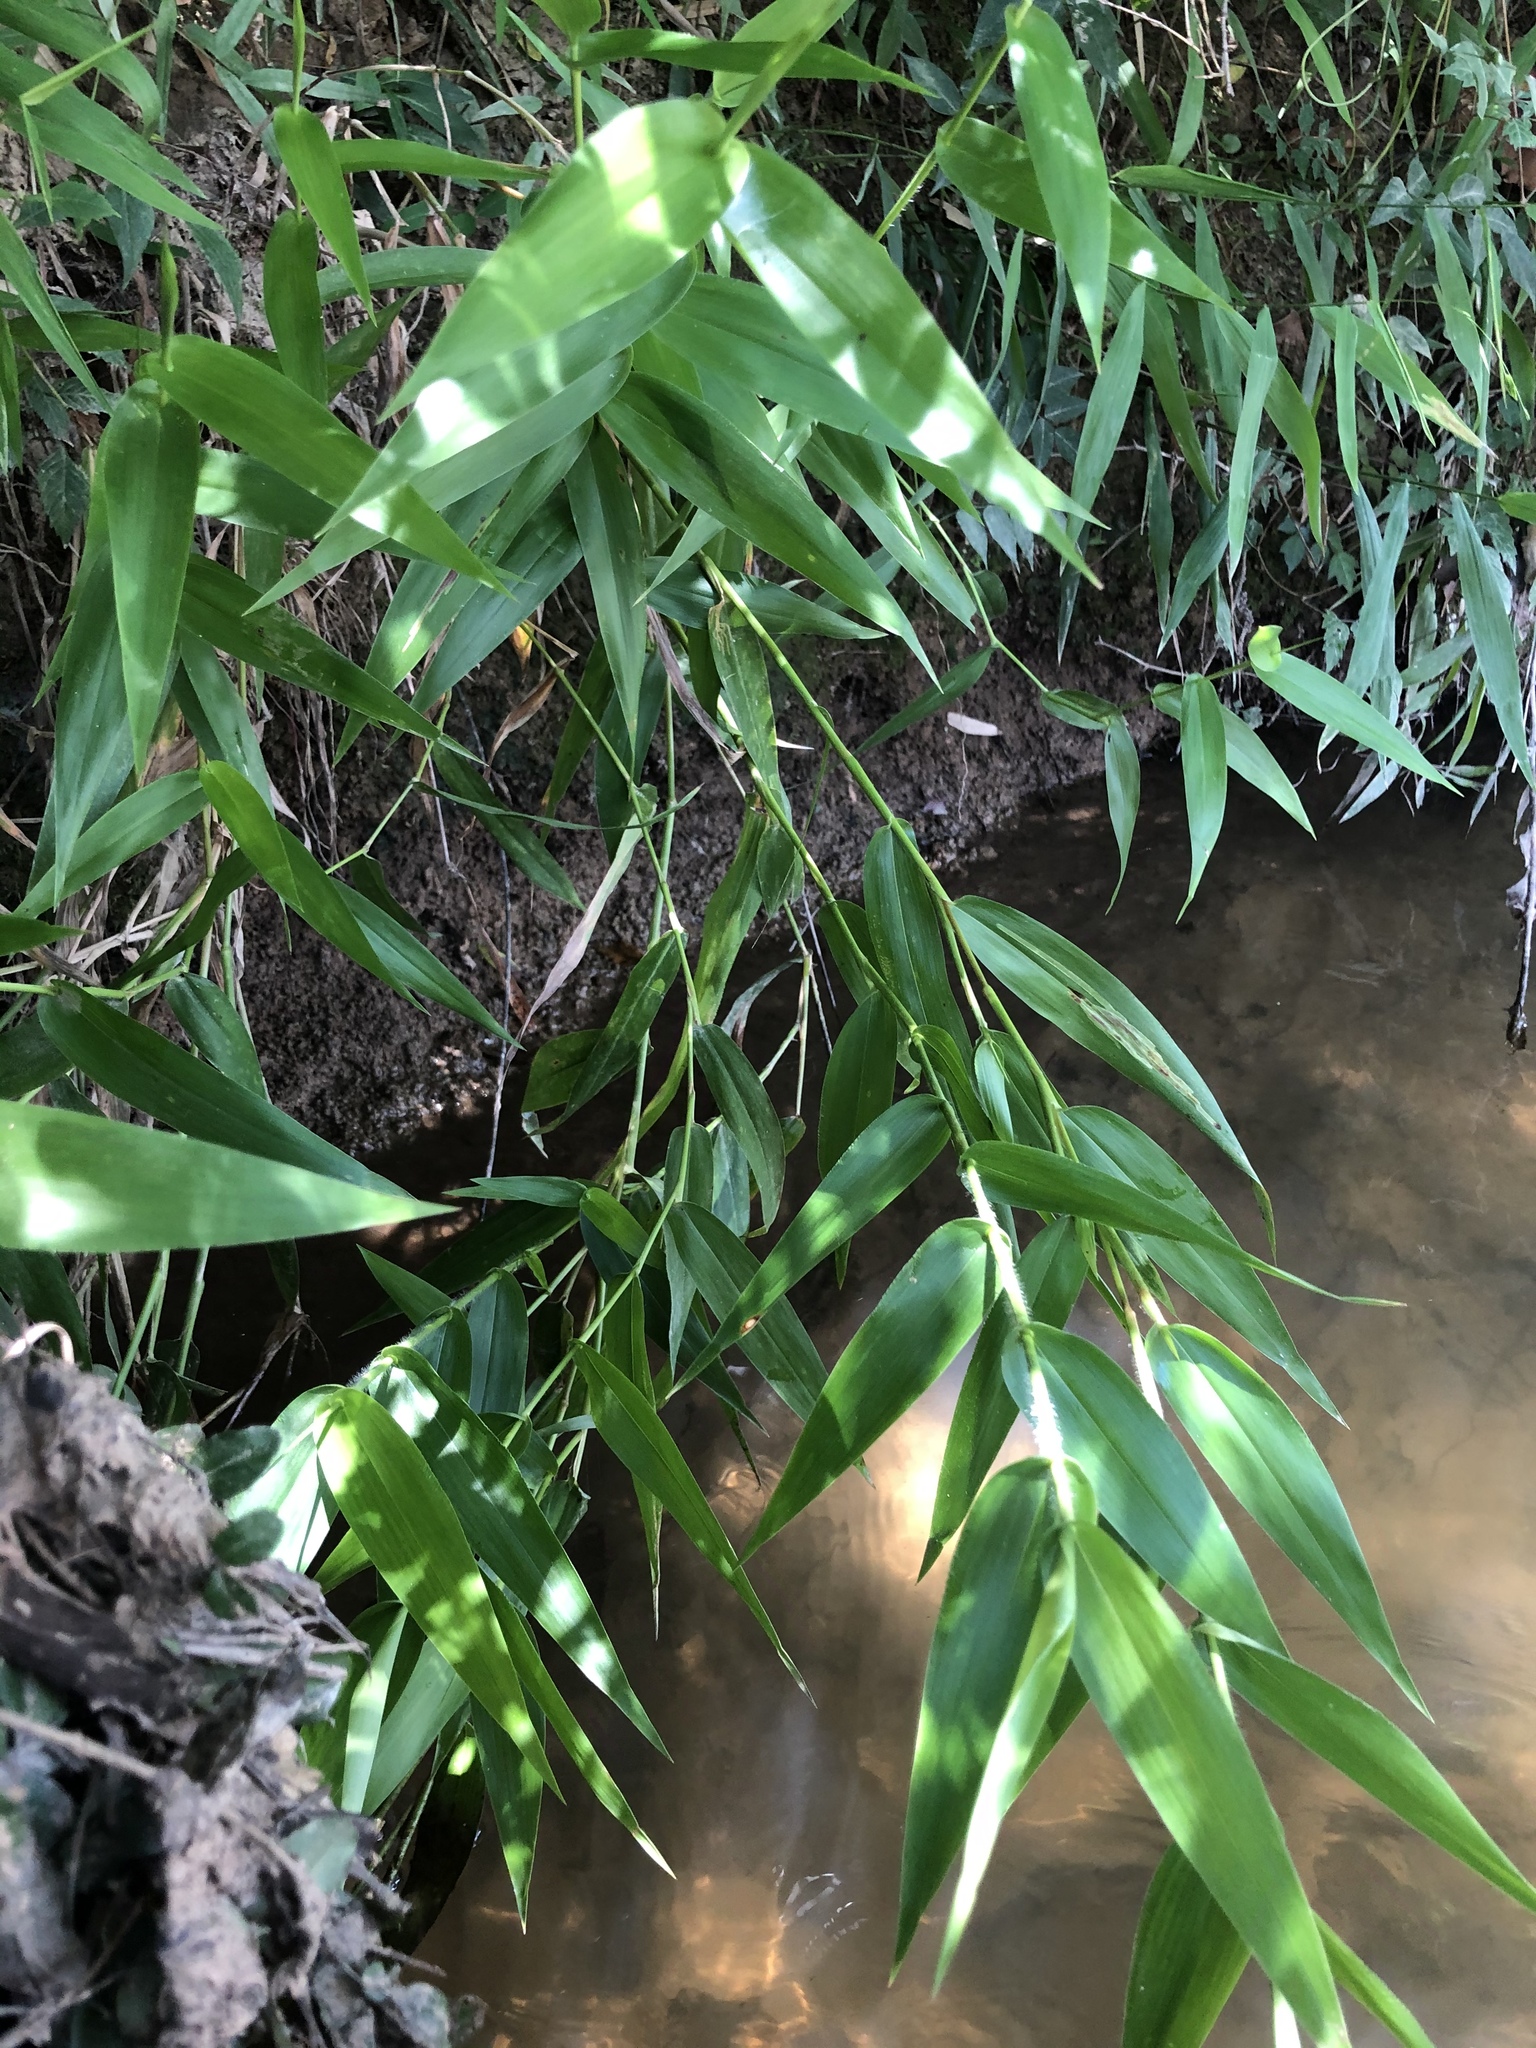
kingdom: Plantae
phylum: Tracheophyta
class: Liliopsida
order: Poales
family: Poaceae
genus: Dichanthelium
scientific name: Dichanthelium clandestinum
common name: Deer-tongue grass
